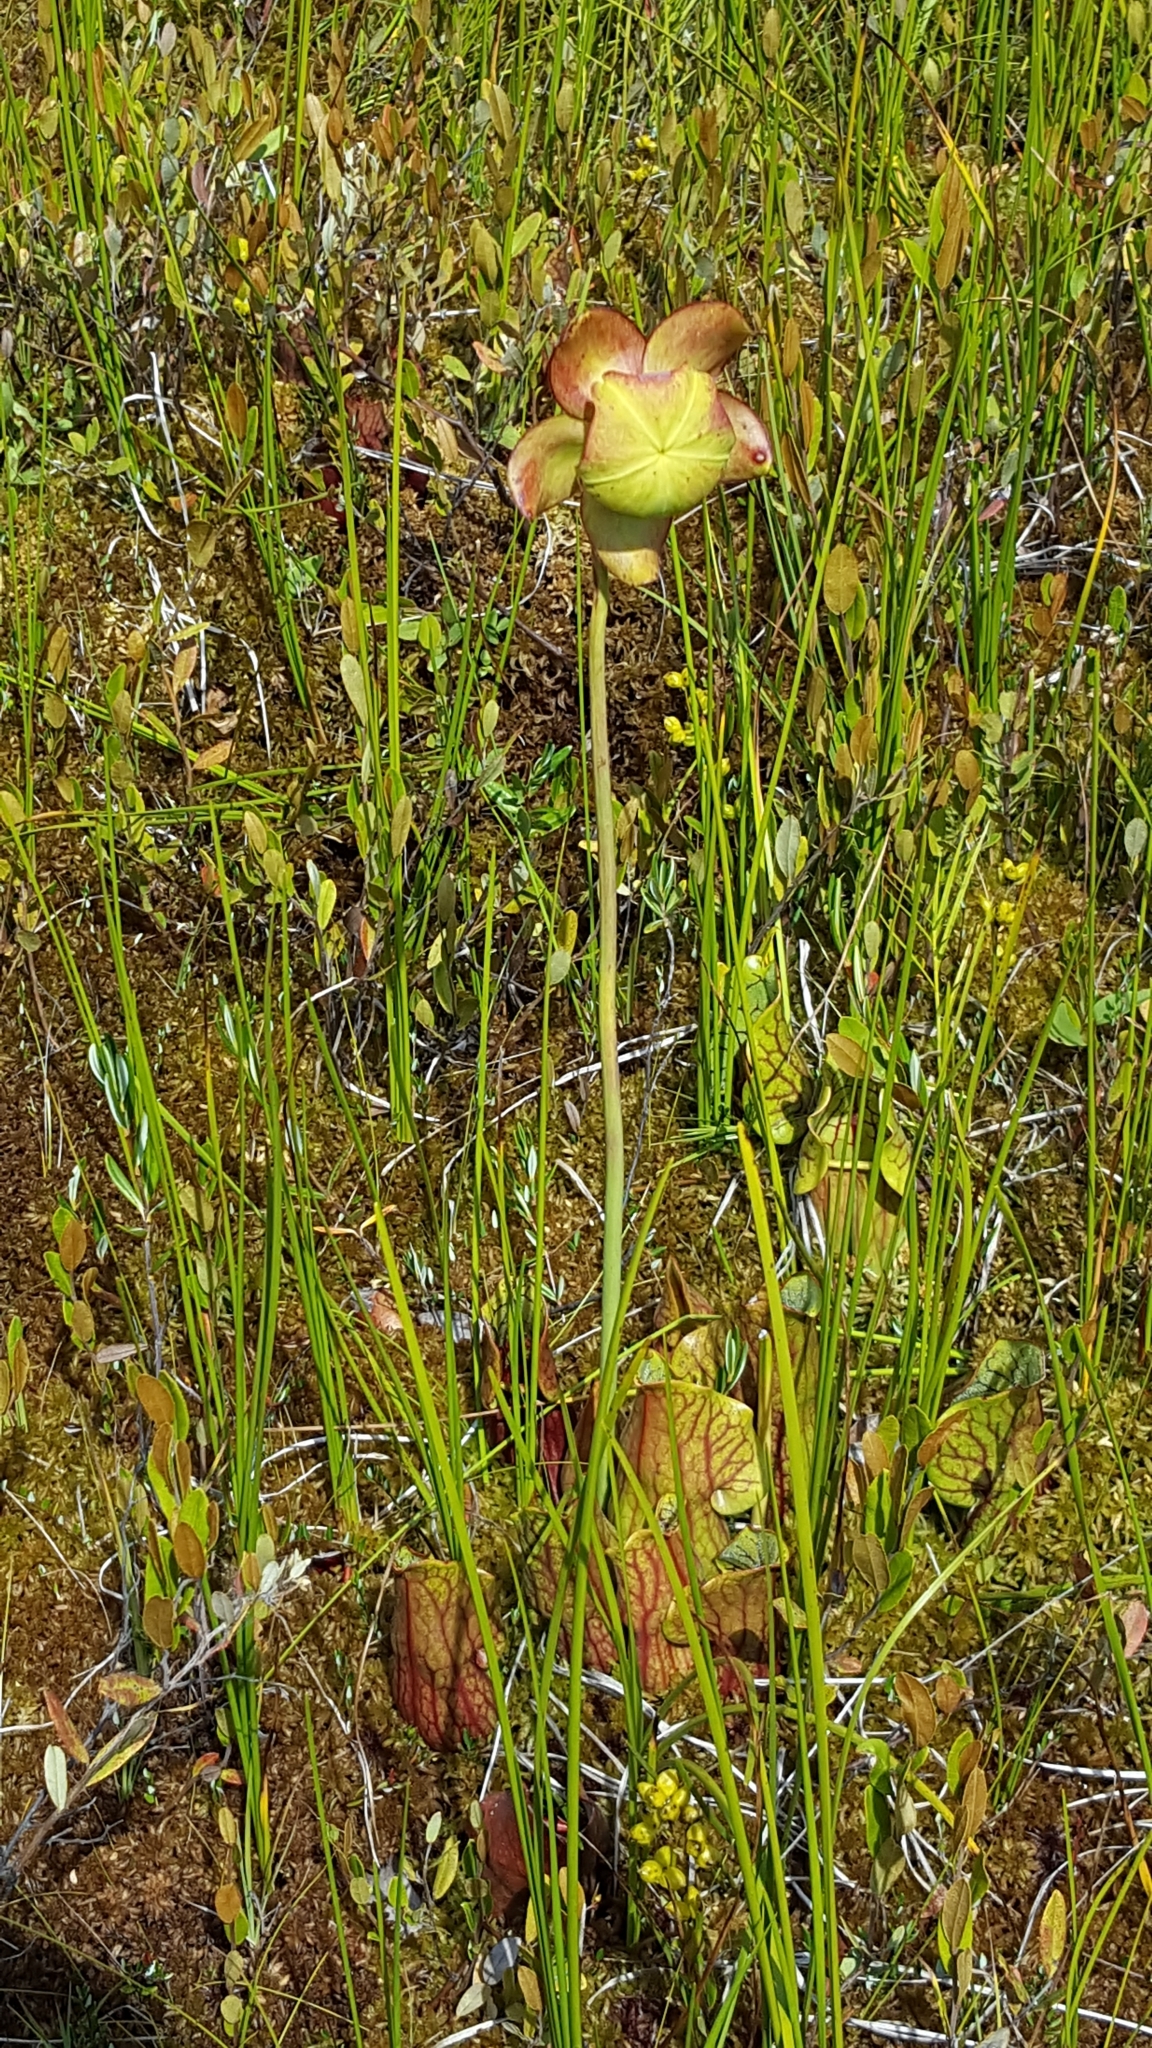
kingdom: Plantae
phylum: Tracheophyta
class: Magnoliopsida
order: Ericales
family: Sarraceniaceae
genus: Sarracenia
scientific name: Sarracenia purpurea
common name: Pitcherplant
